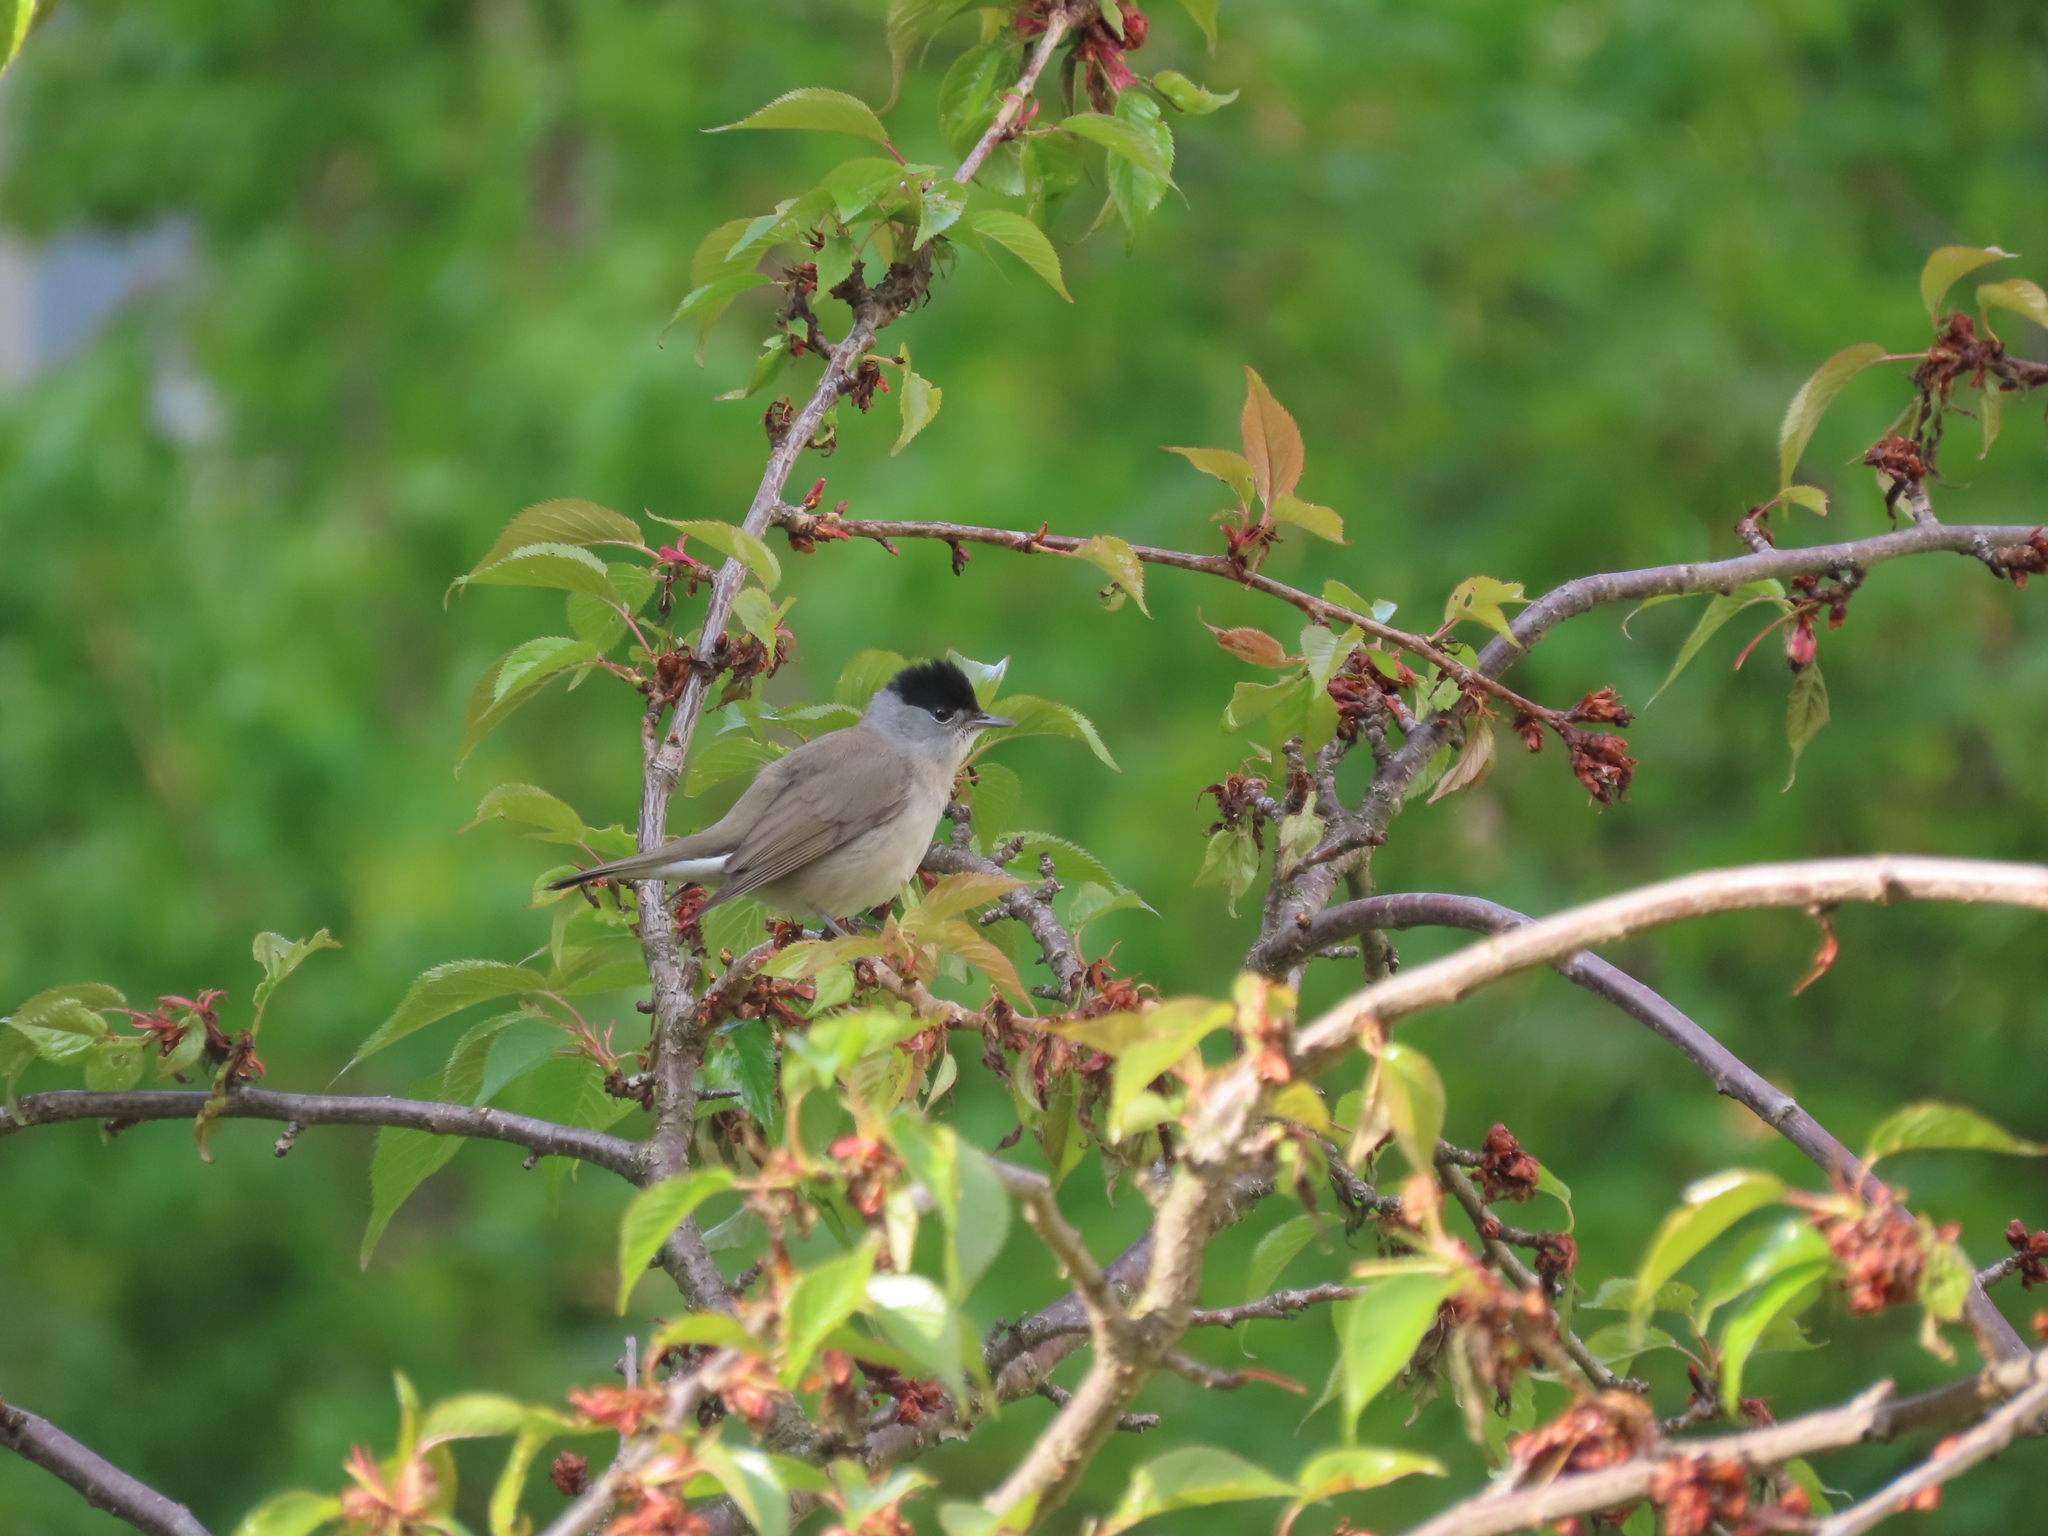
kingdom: Animalia
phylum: Chordata
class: Aves
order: Passeriformes
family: Sylviidae
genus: Sylvia
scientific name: Sylvia atricapilla
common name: Eurasian blackcap
